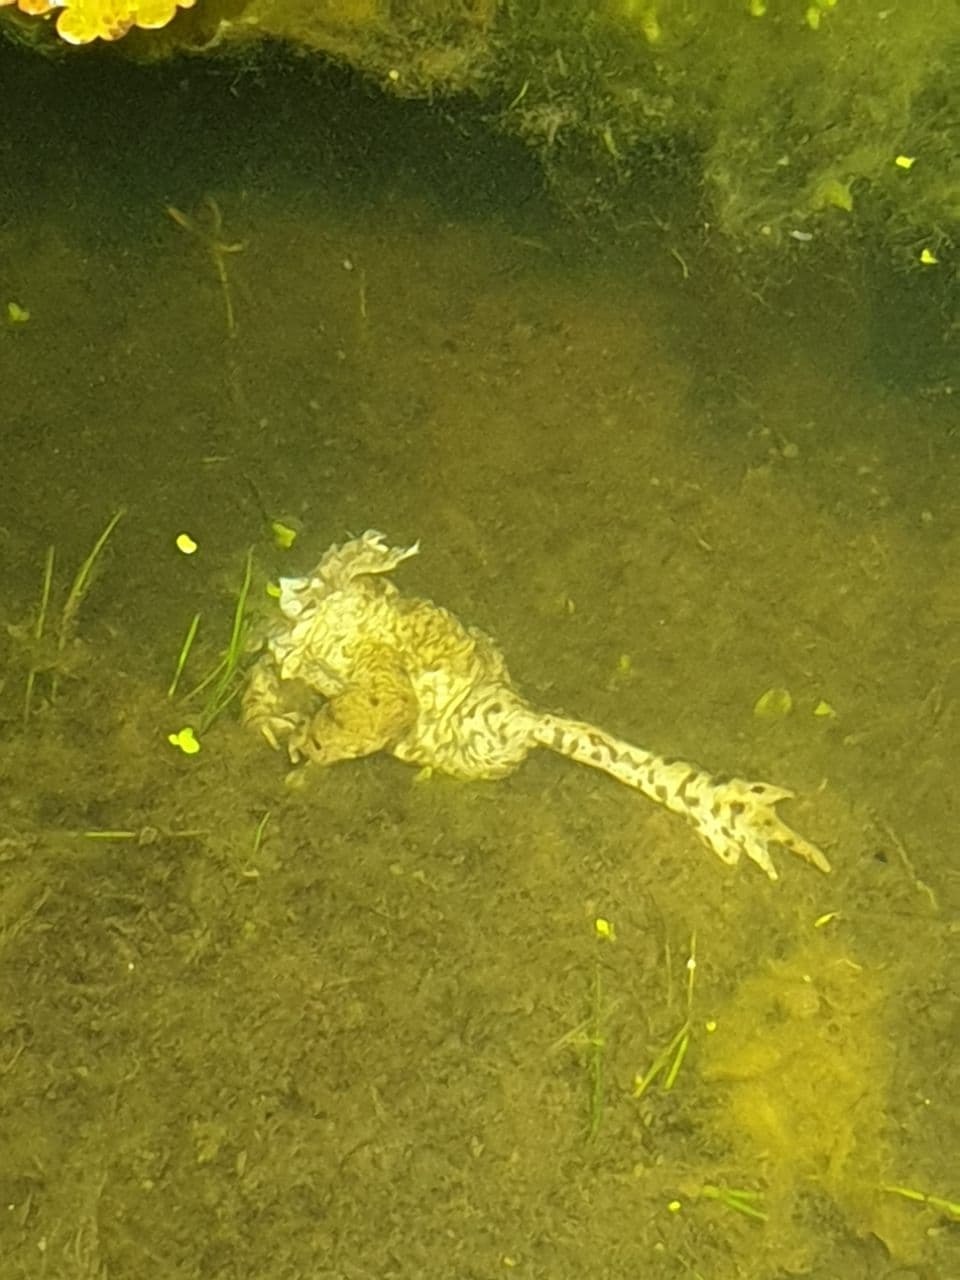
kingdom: Animalia
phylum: Chordata
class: Amphibia
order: Anura
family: Bufonidae
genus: Bufo
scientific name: Bufo bufo
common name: Common toad
